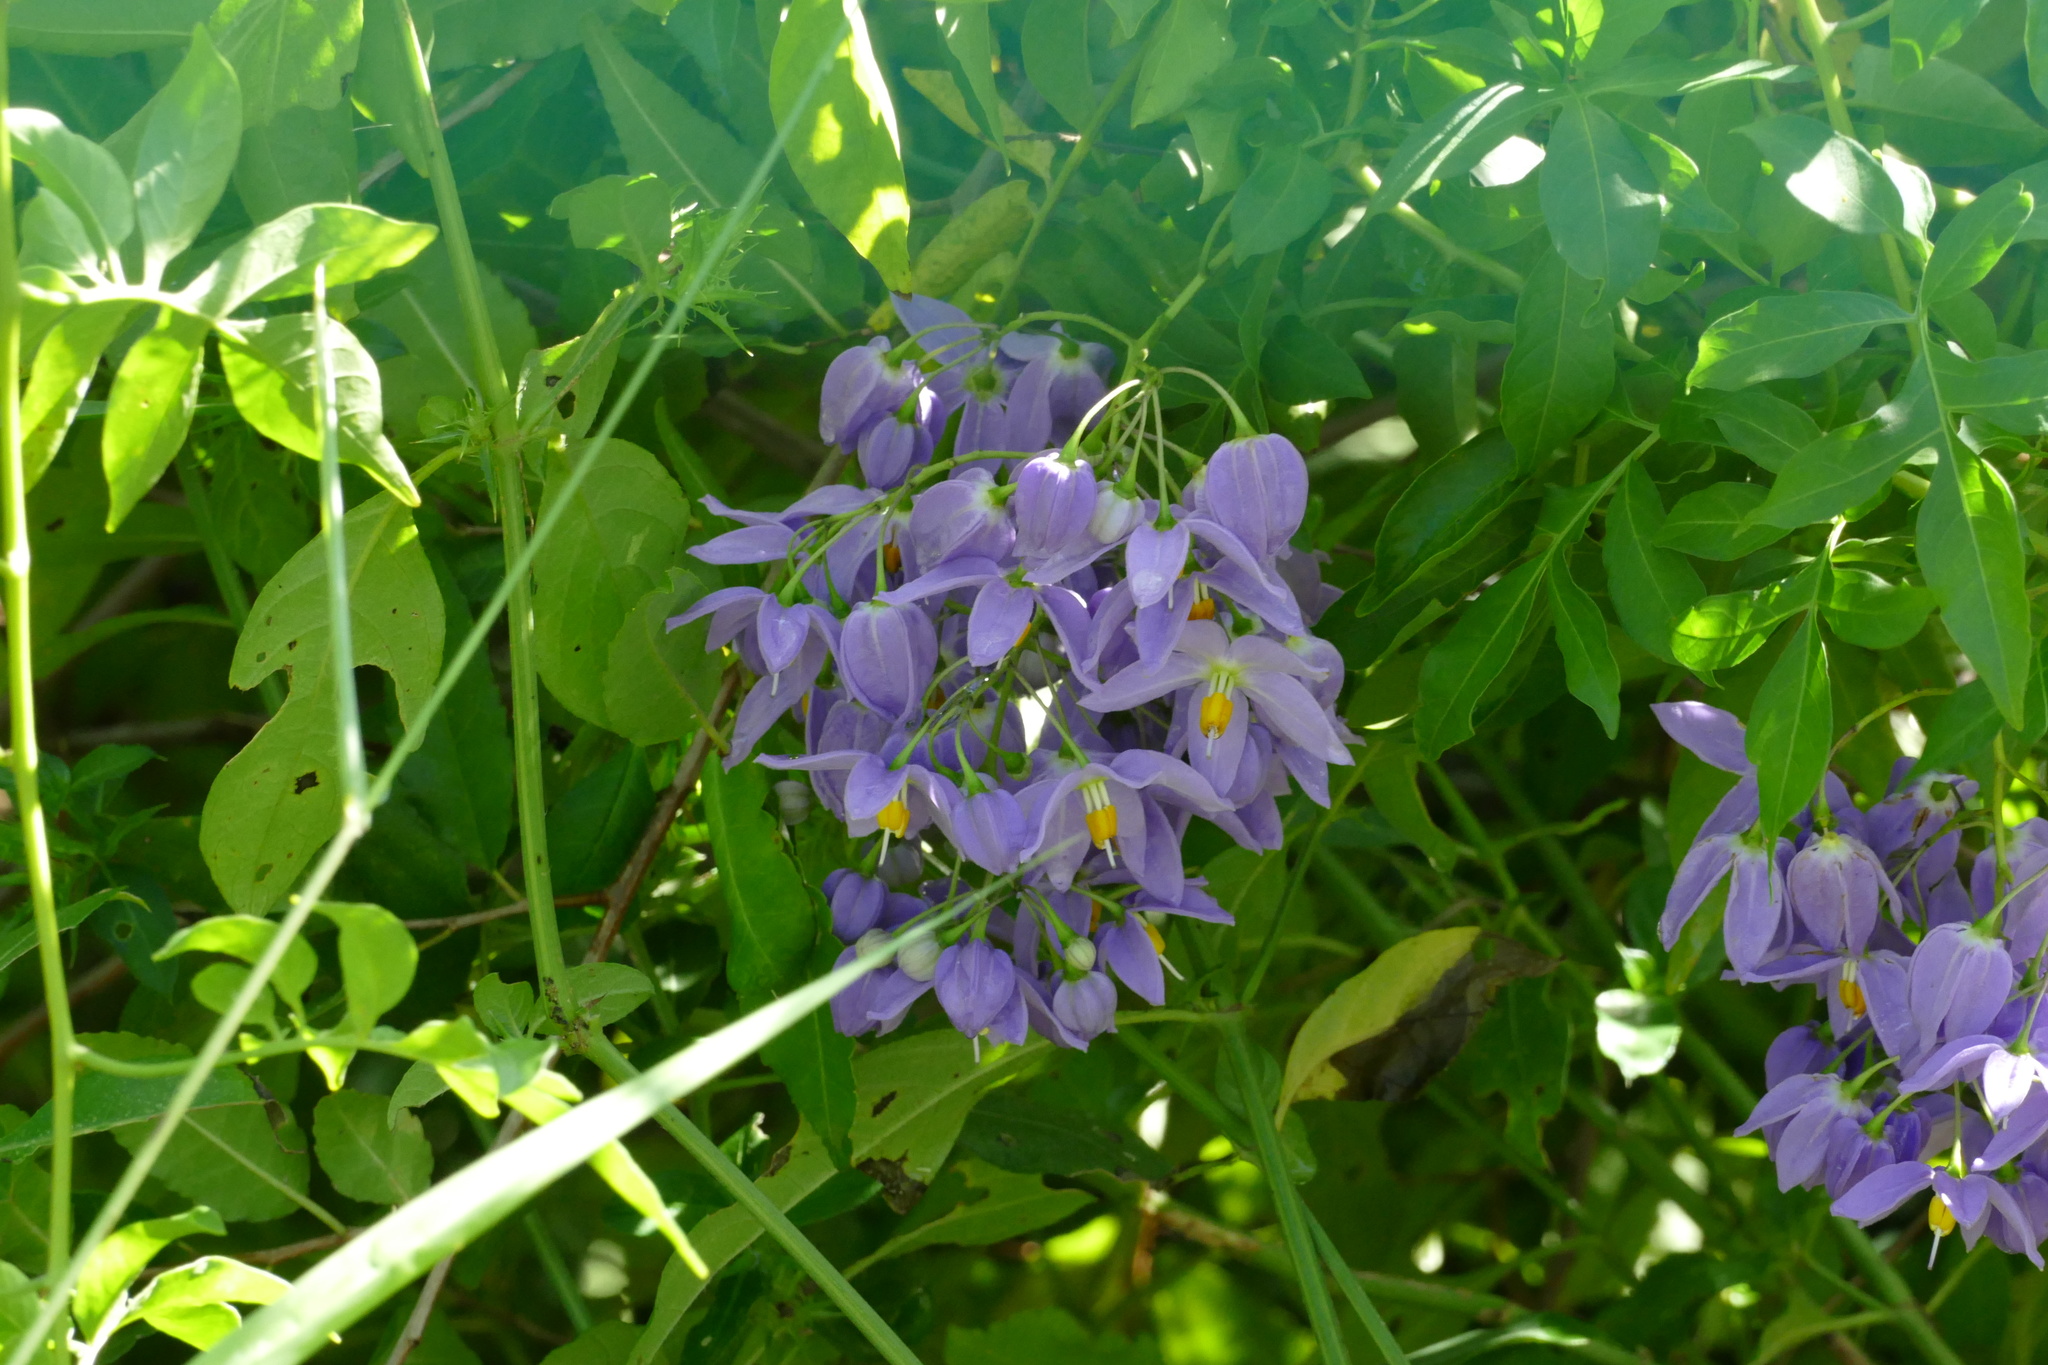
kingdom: Plantae
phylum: Tracheophyta
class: Magnoliopsida
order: Solanales
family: Solanaceae
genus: Solanum
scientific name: Solanum seaforthianum
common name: Brazilian nightshade
